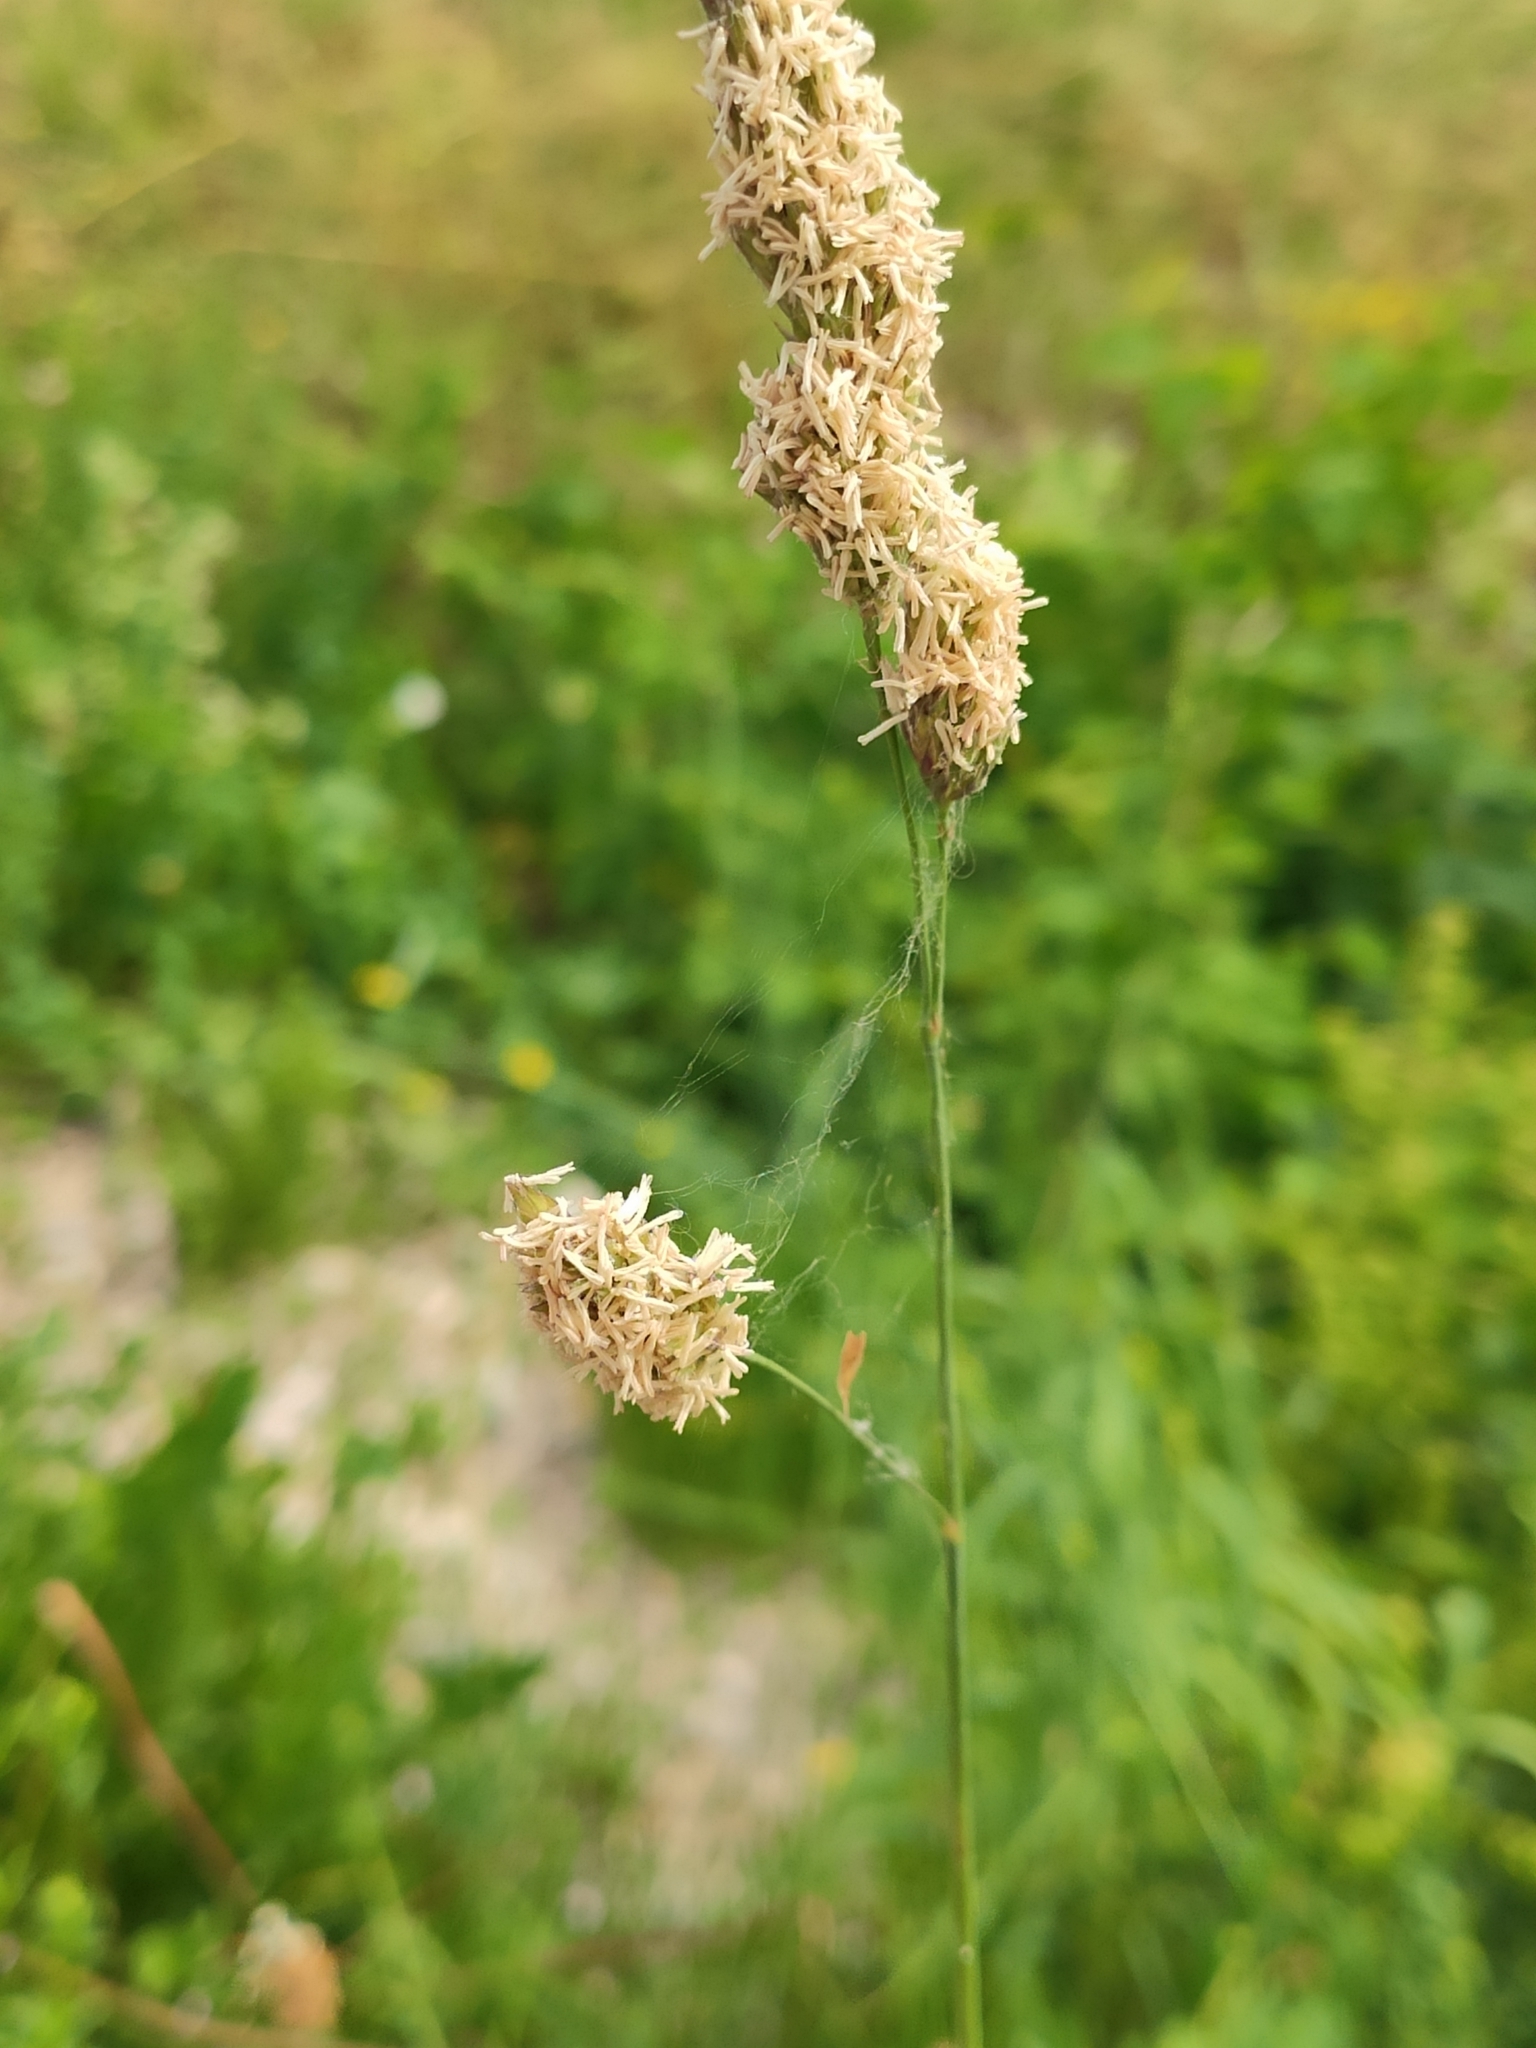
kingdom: Plantae
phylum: Tracheophyta
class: Liliopsida
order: Poales
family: Poaceae
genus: Dactylis
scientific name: Dactylis glomerata
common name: Orchardgrass
